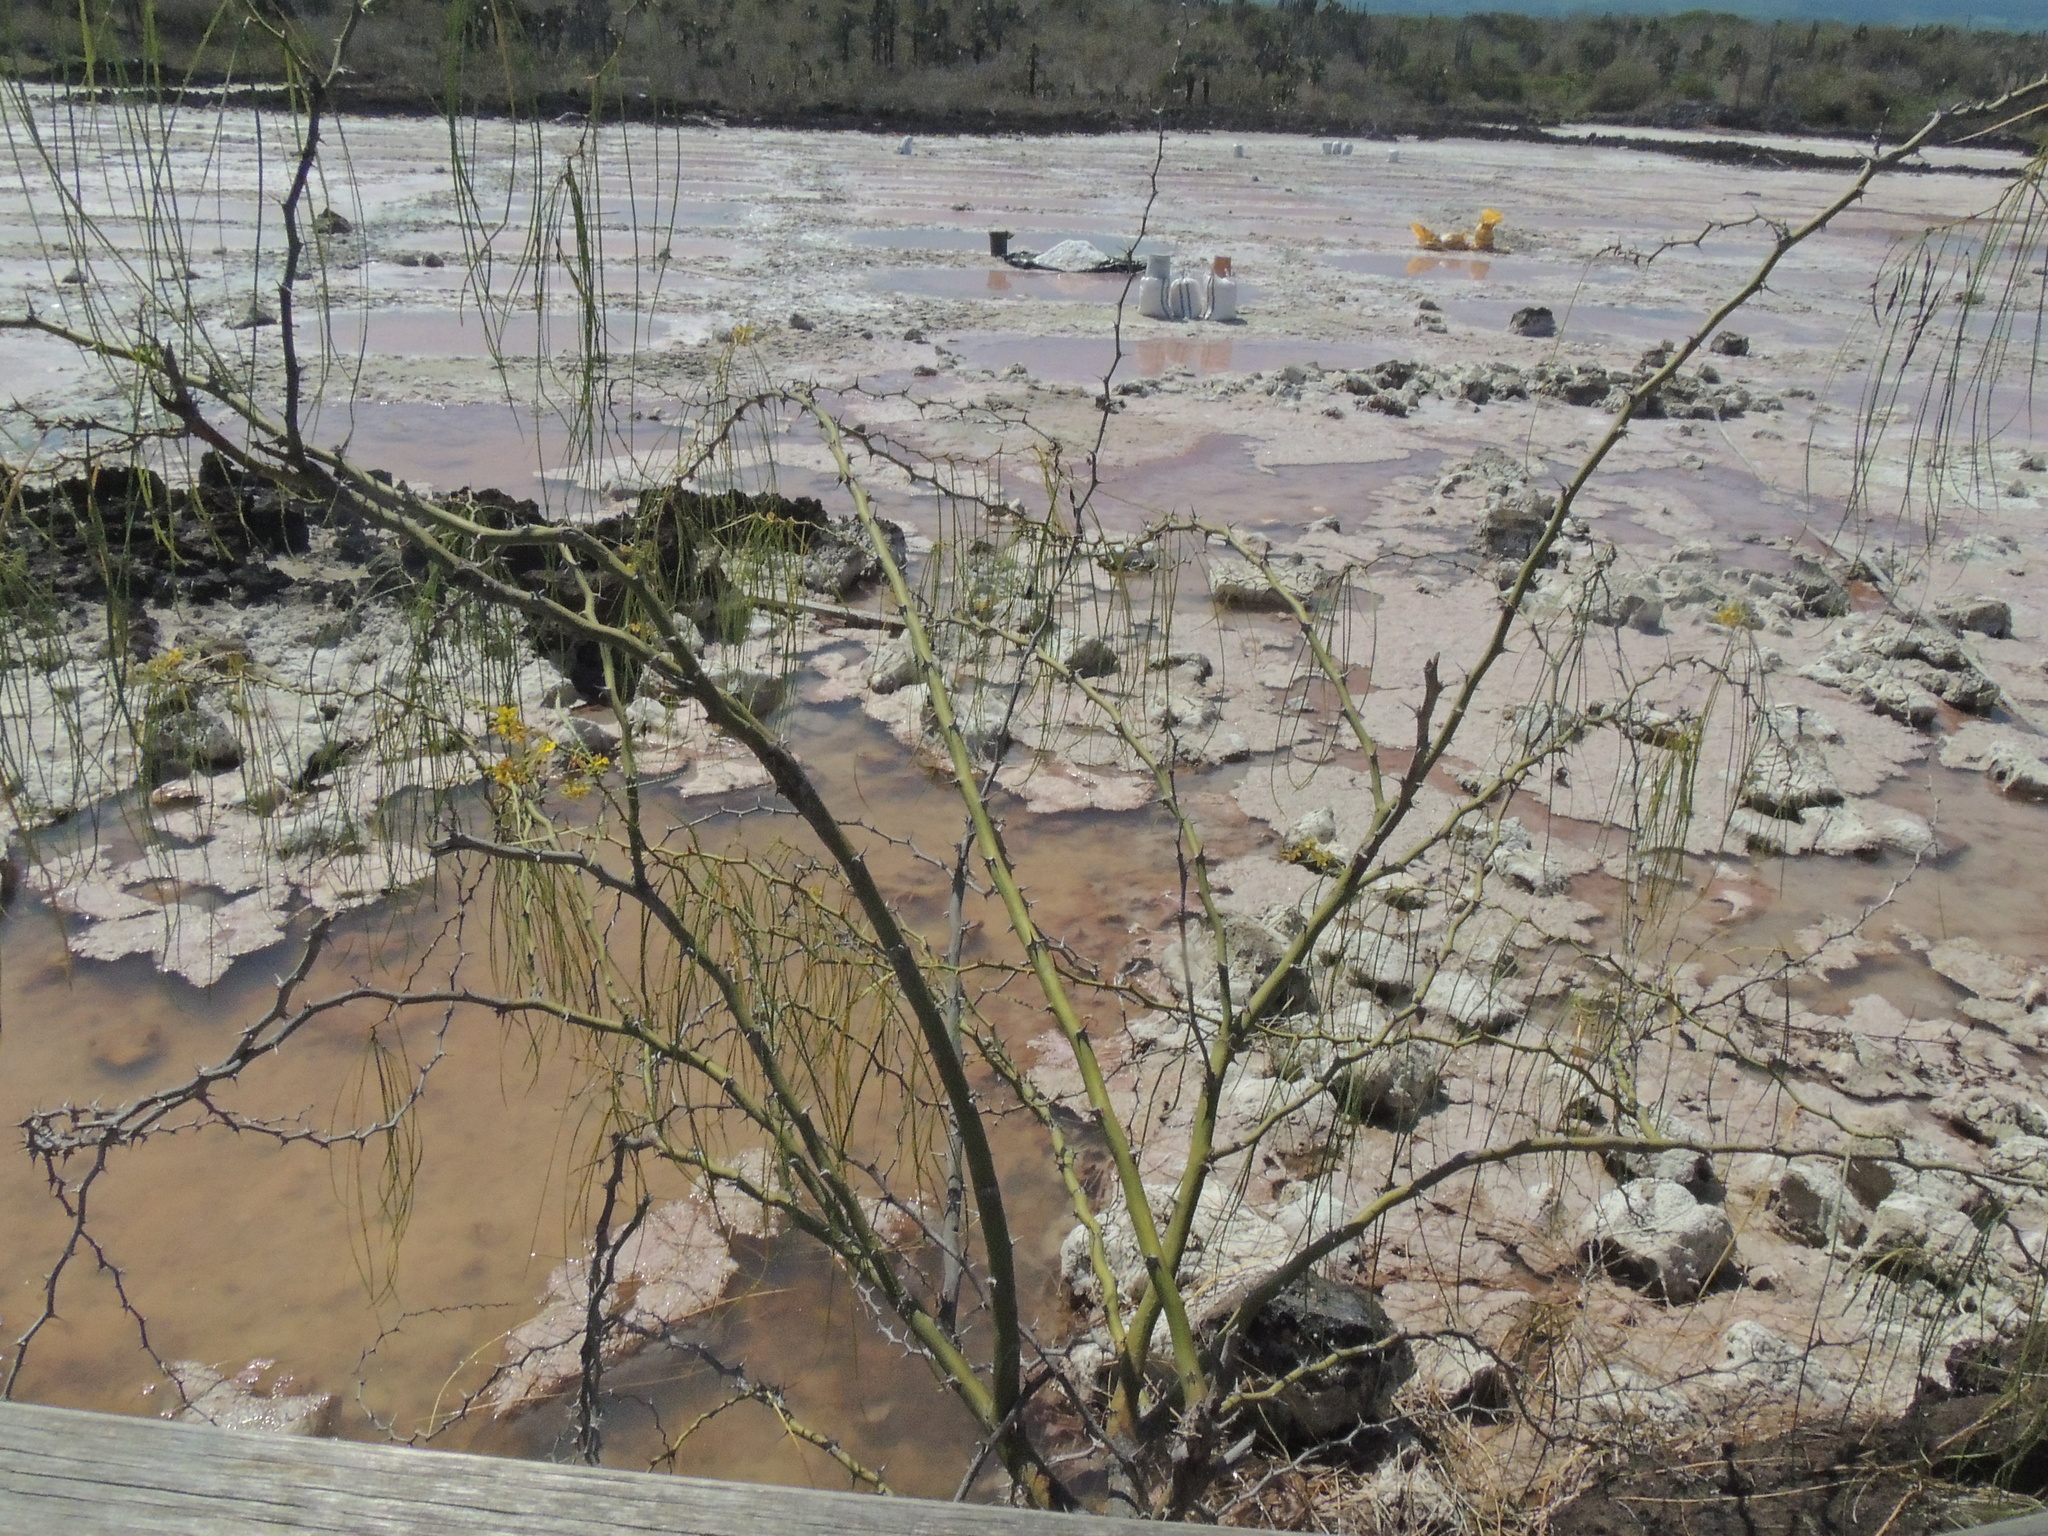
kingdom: Plantae
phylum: Tracheophyta
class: Magnoliopsida
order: Fabales
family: Fabaceae
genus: Parkinsonia
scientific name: Parkinsonia aculeata
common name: Jerusalem thorn
